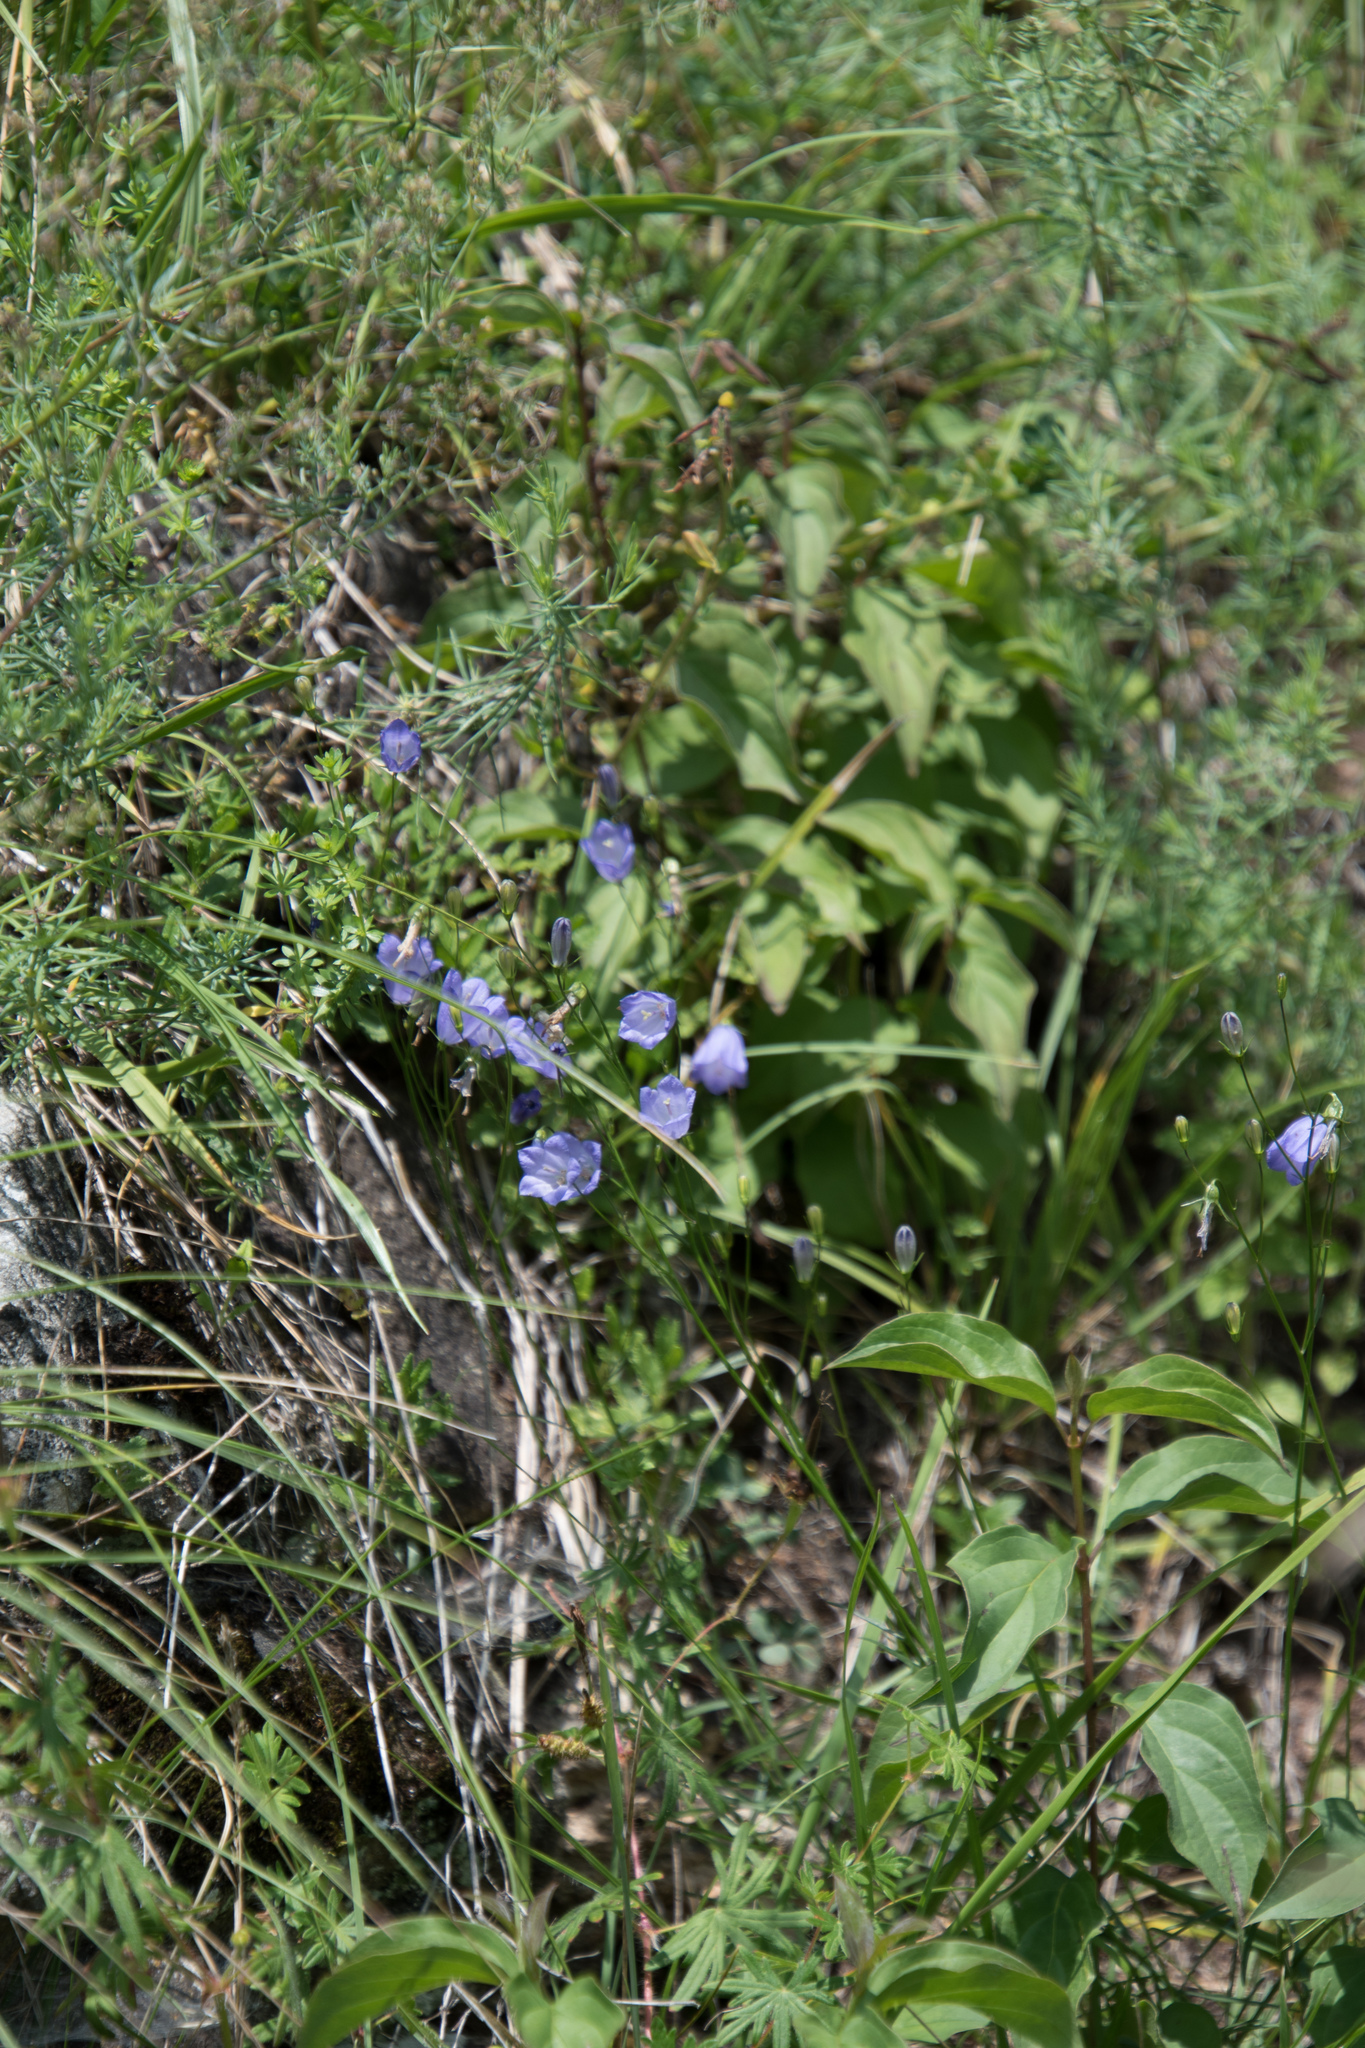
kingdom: Plantae
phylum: Tracheophyta
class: Magnoliopsida
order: Asterales
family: Campanulaceae
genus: Campanula
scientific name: Campanula rotundifolia
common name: Harebell
